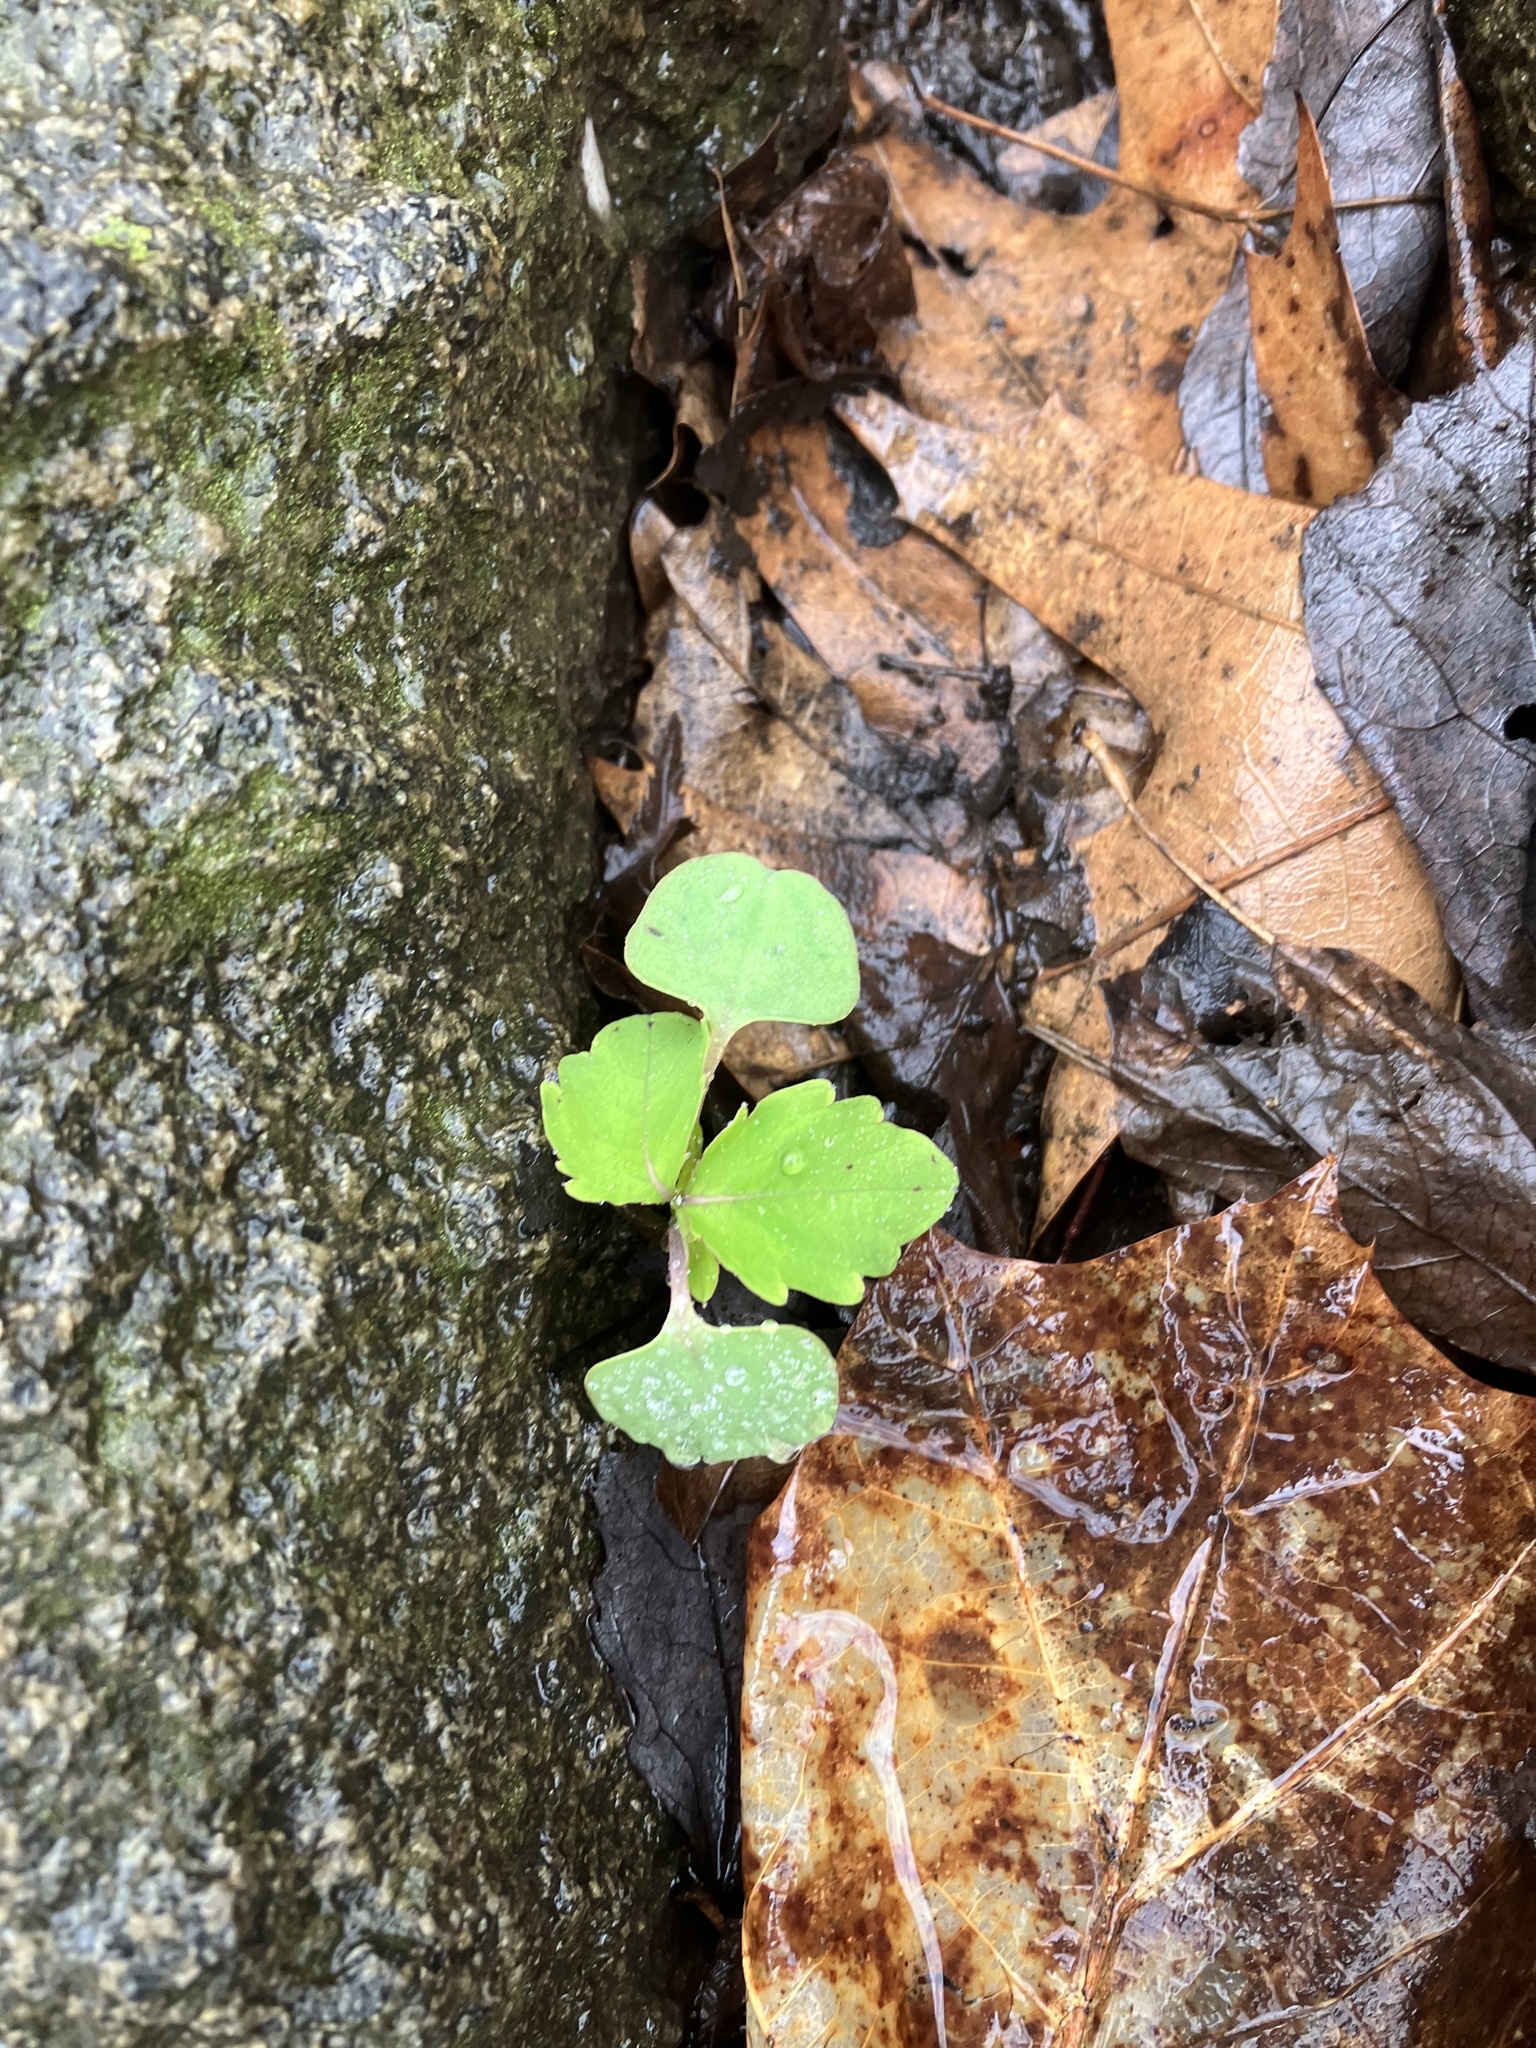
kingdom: Plantae
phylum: Tracheophyta
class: Magnoliopsida
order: Ericales
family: Balsaminaceae
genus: Impatiens
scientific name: Impatiens capensis
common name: Orange balsam
